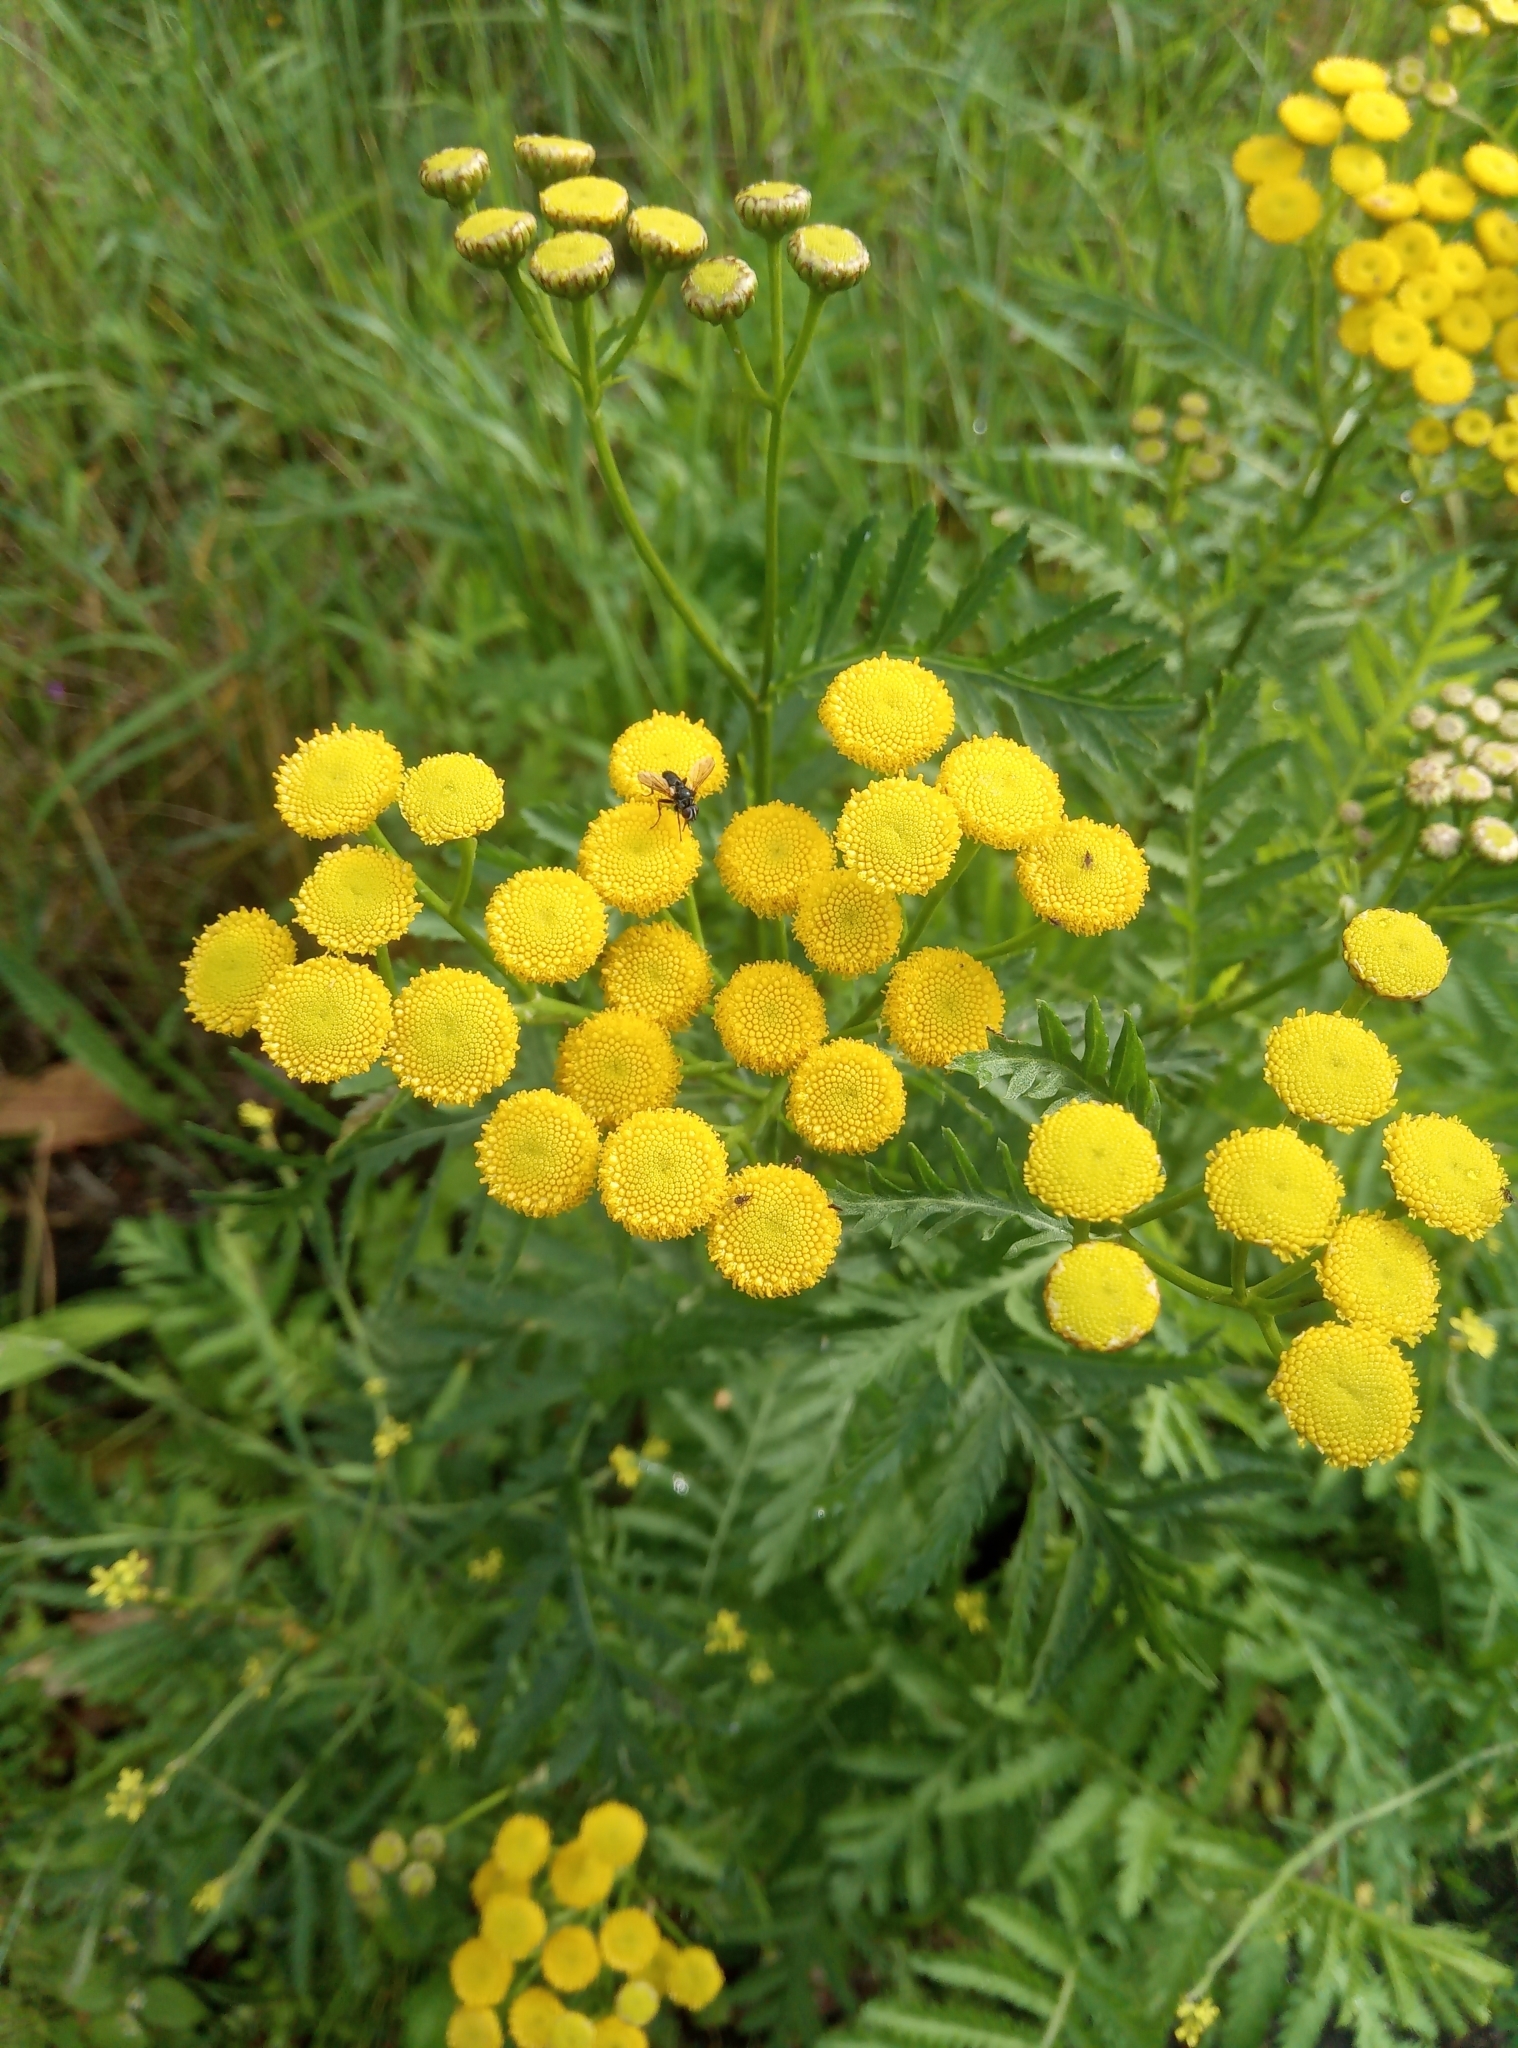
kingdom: Plantae
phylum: Tracheophyta
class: Magnoliopsida
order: Asterales
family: Asteraceae
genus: Tanacetum
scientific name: Tanacetum vulgare
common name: Common tansy
